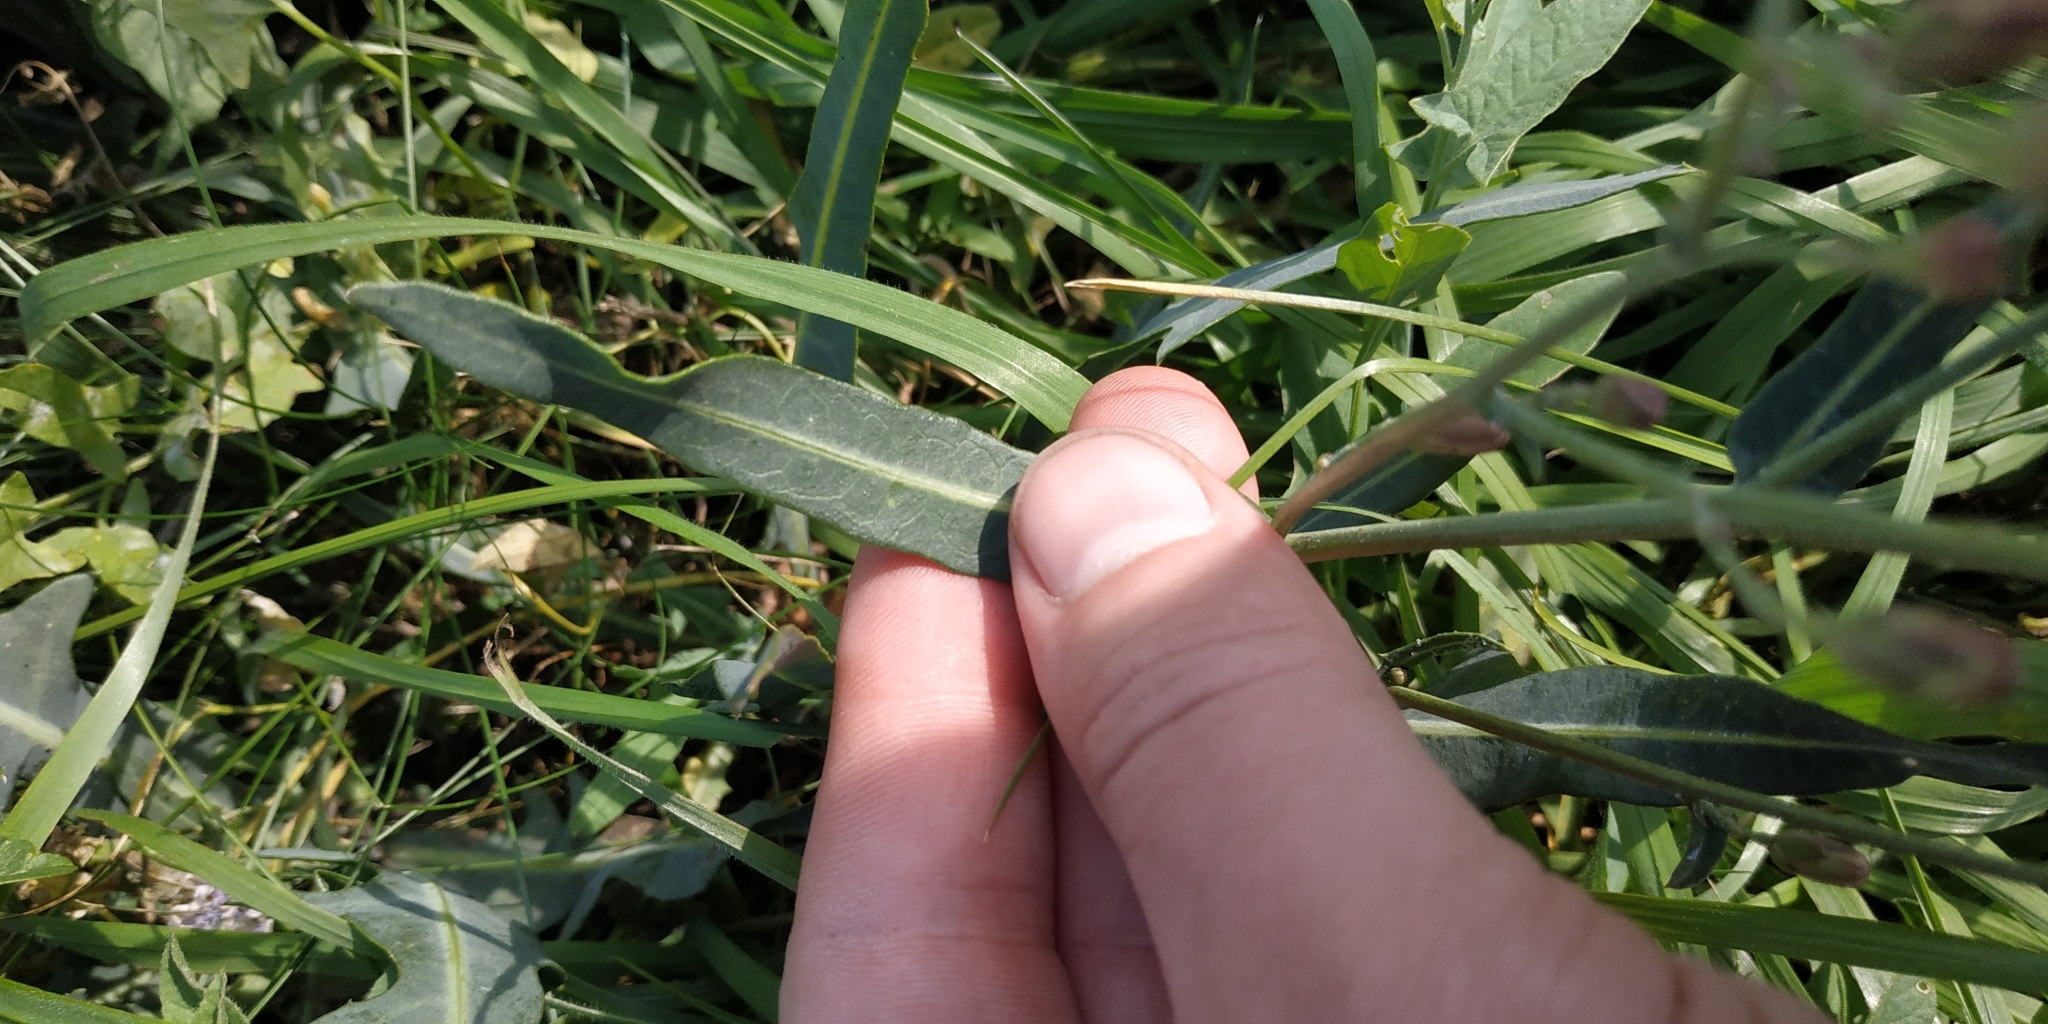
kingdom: Plantae
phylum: Tracheophyta
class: Magnoliopsida
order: Asterales
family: Asteraceae
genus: Lactuca
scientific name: Lactuca tatarica
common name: Blue lettuce
